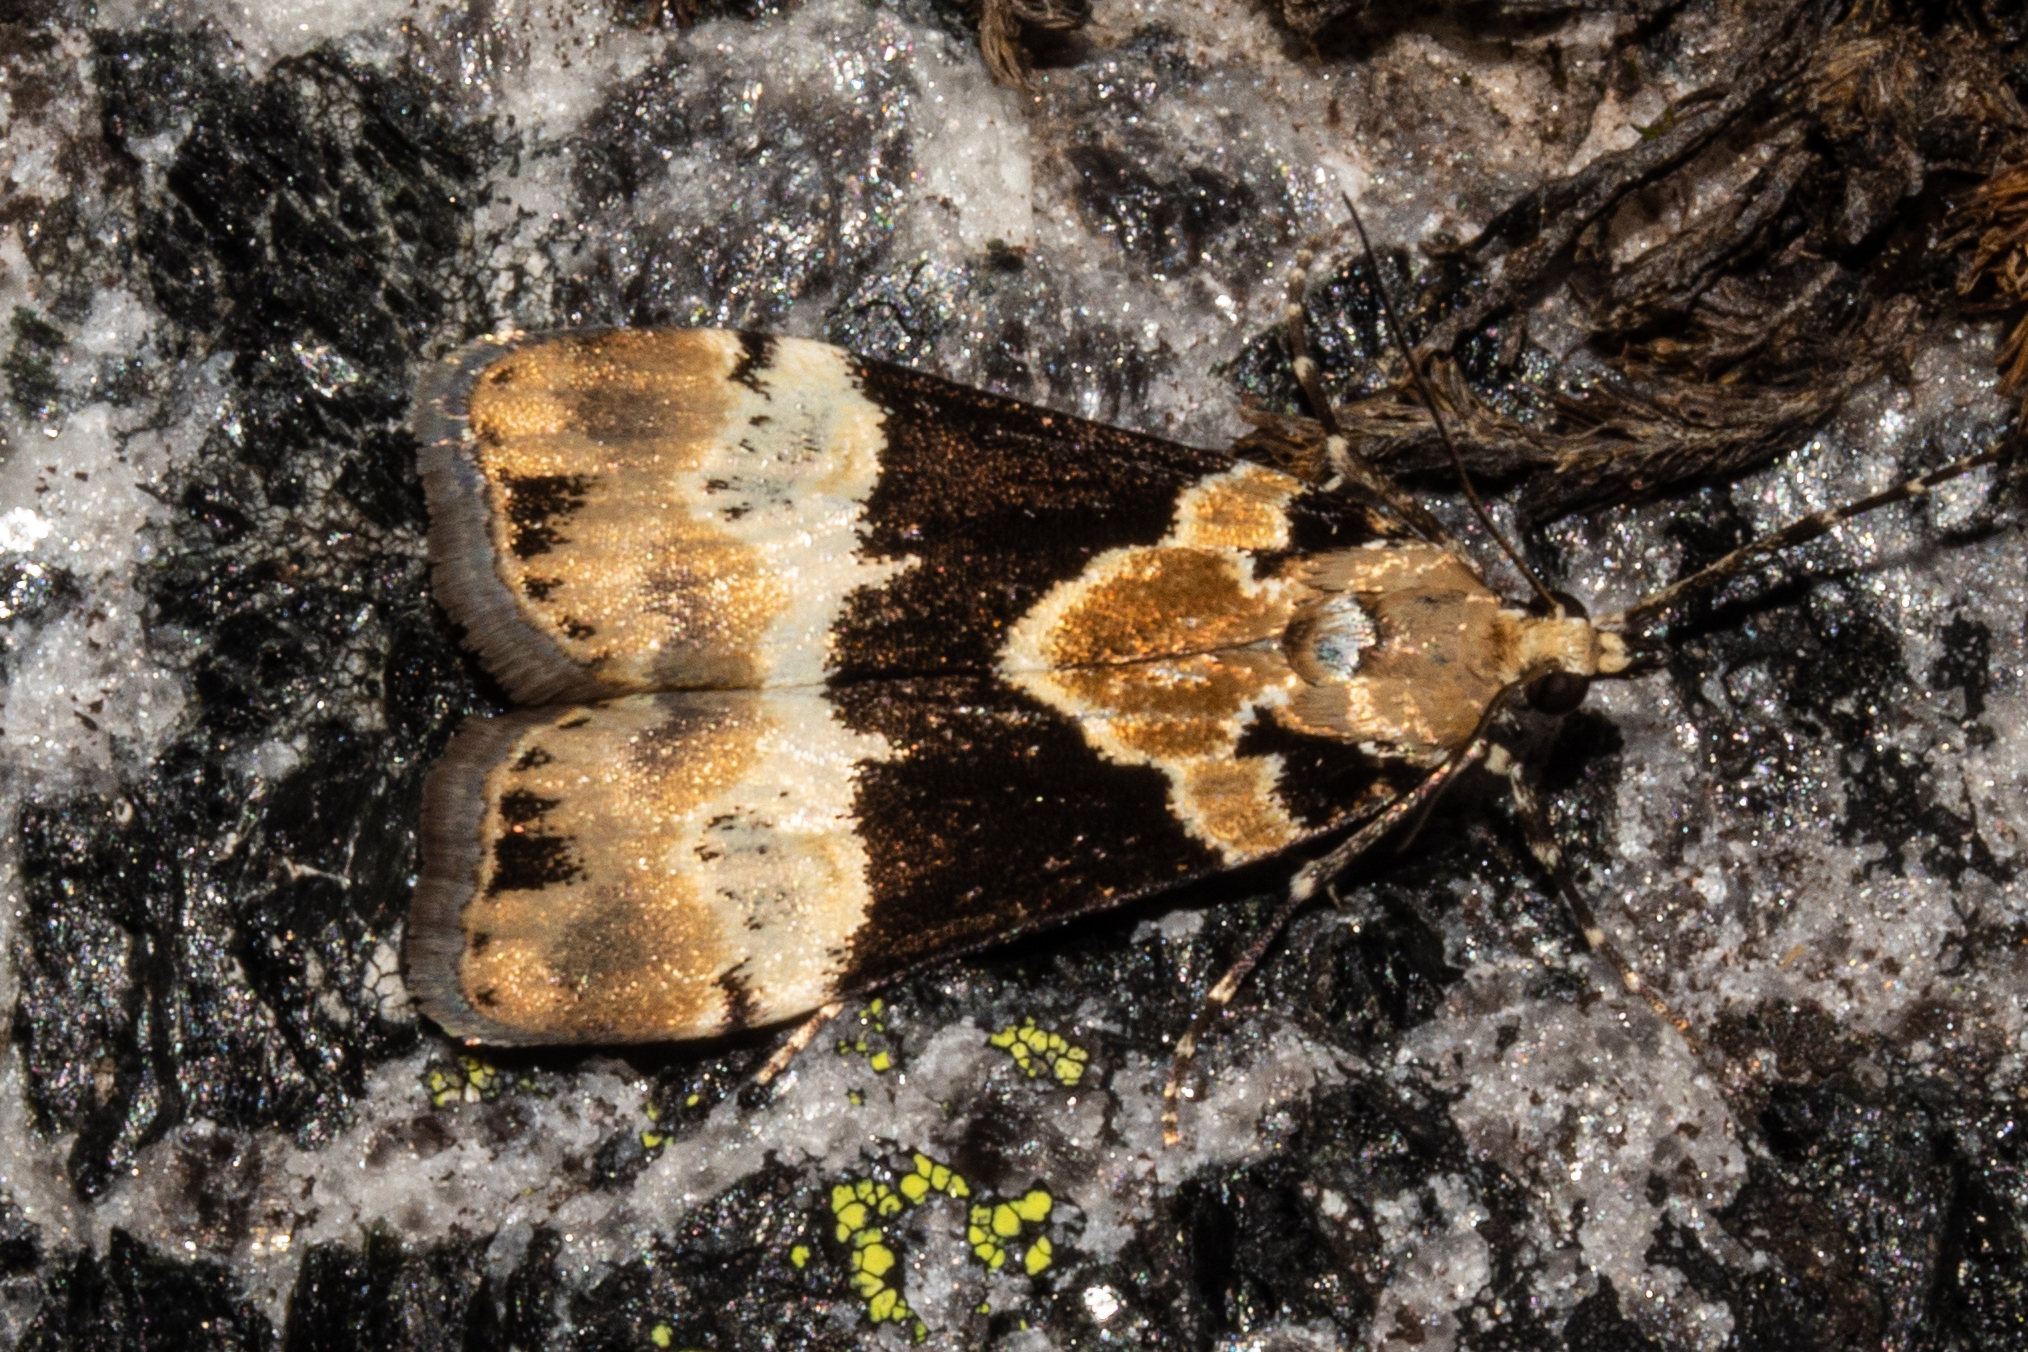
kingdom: Animalia
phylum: Arthropoda
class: Insecta
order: Lepidoptera
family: Crambidae
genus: Eudonia
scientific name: Eudonia aspidota
